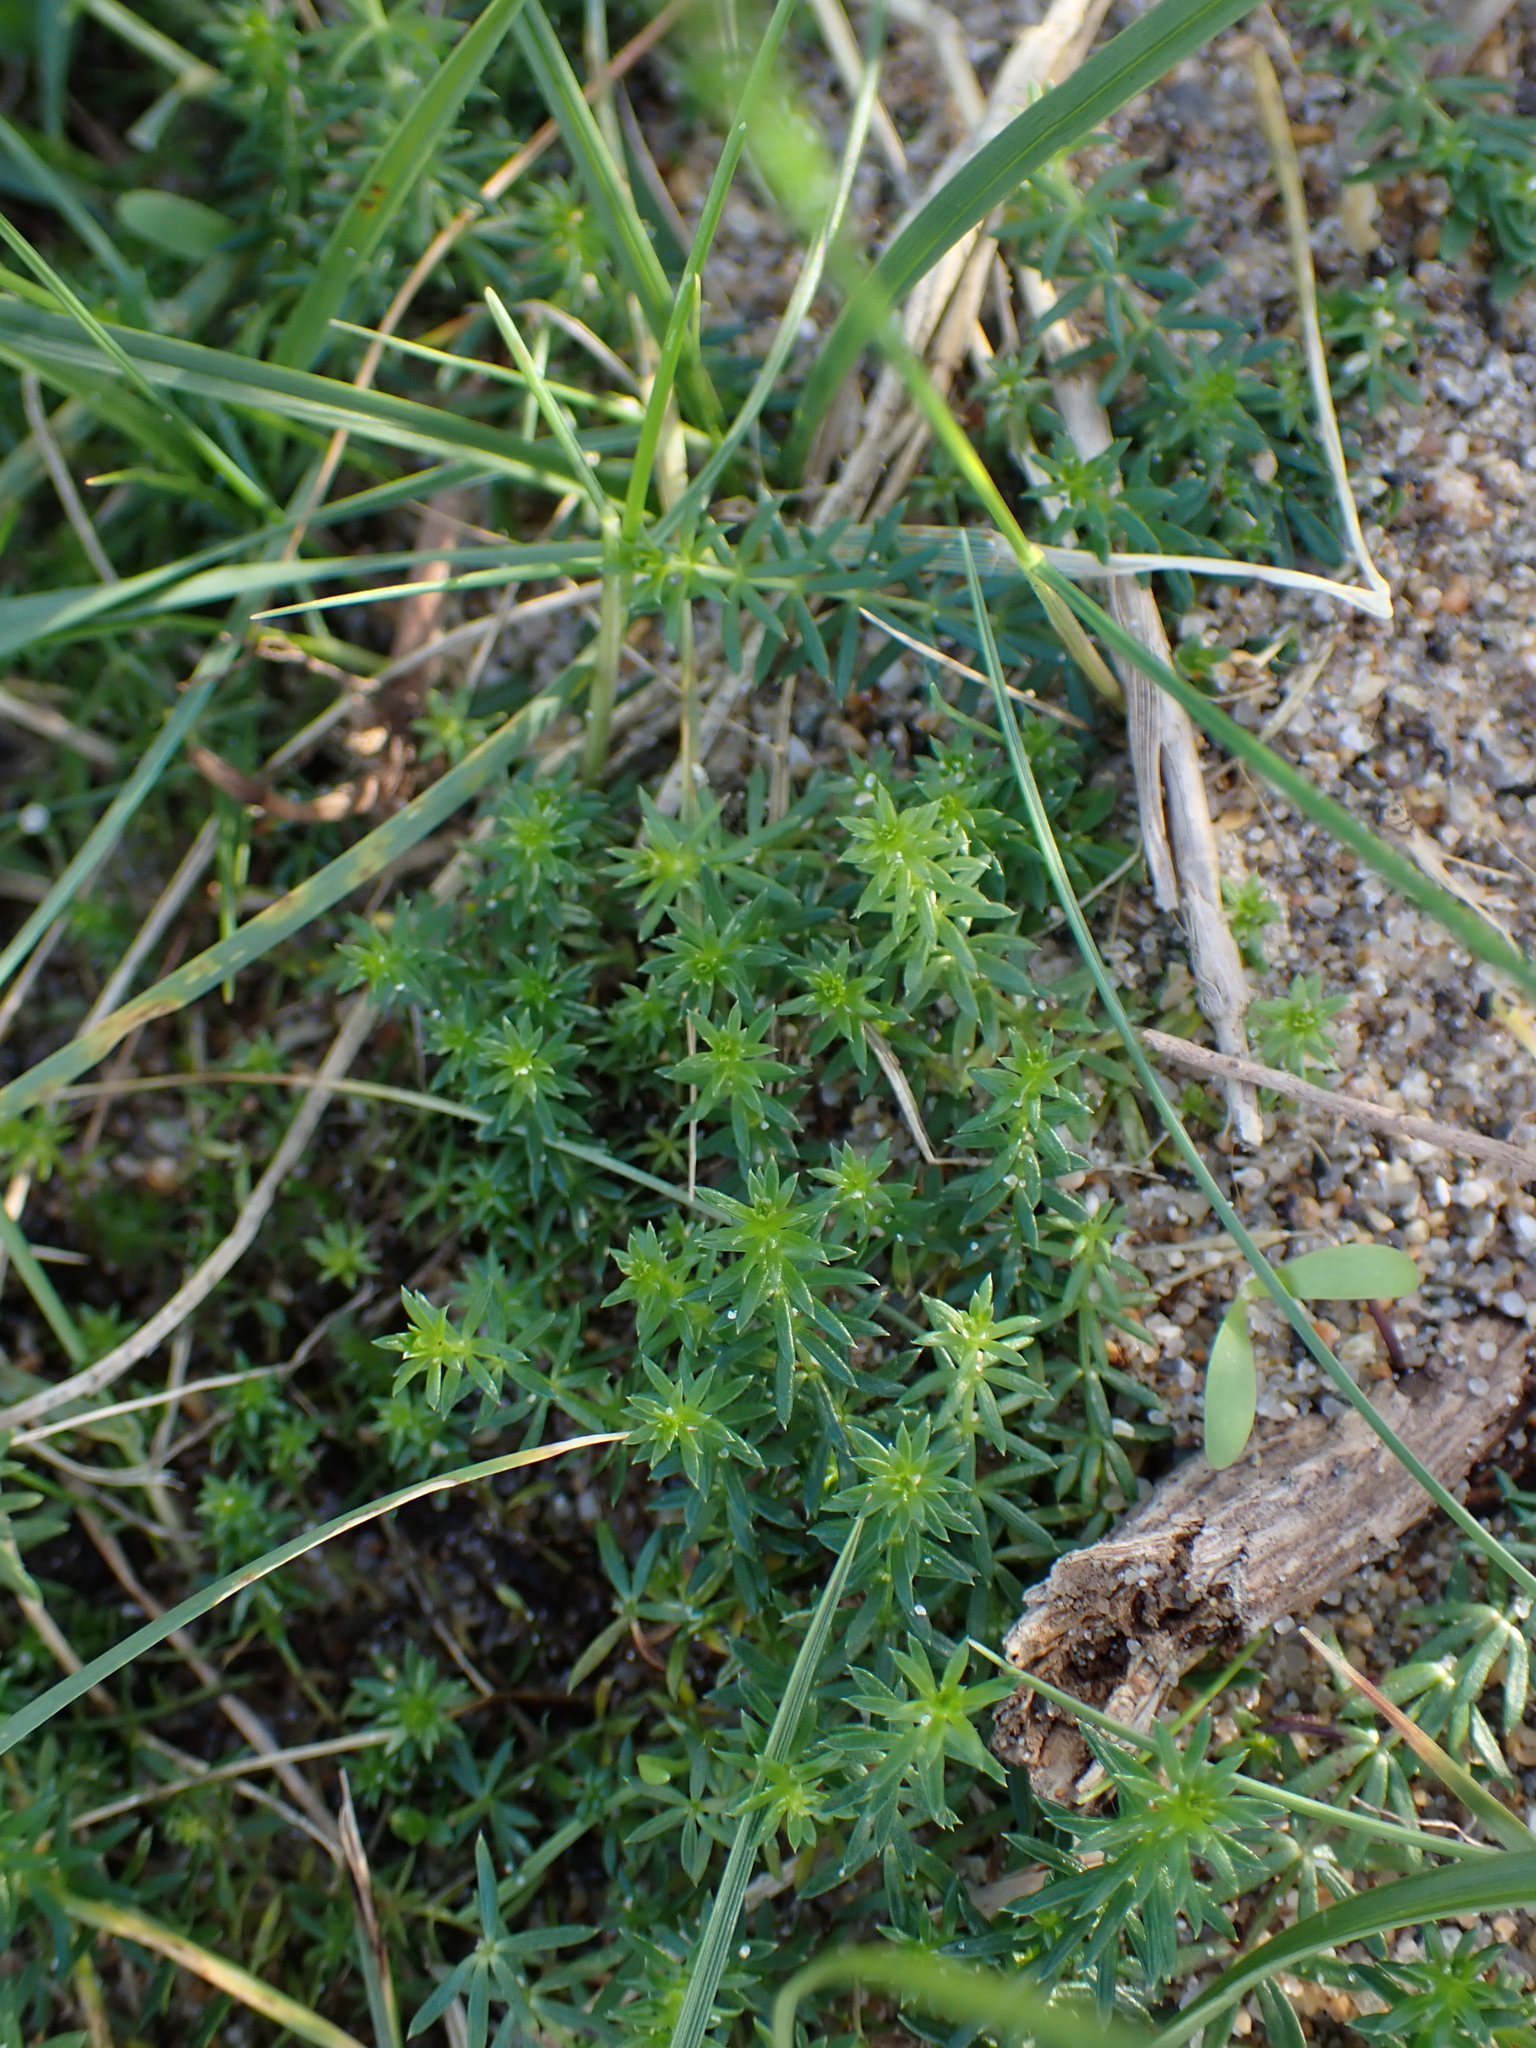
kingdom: Plantae
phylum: Tracheophyta
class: Magnoliopsida
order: Gentianales
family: Rubiaceae
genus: Galium
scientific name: Galium arenarium
